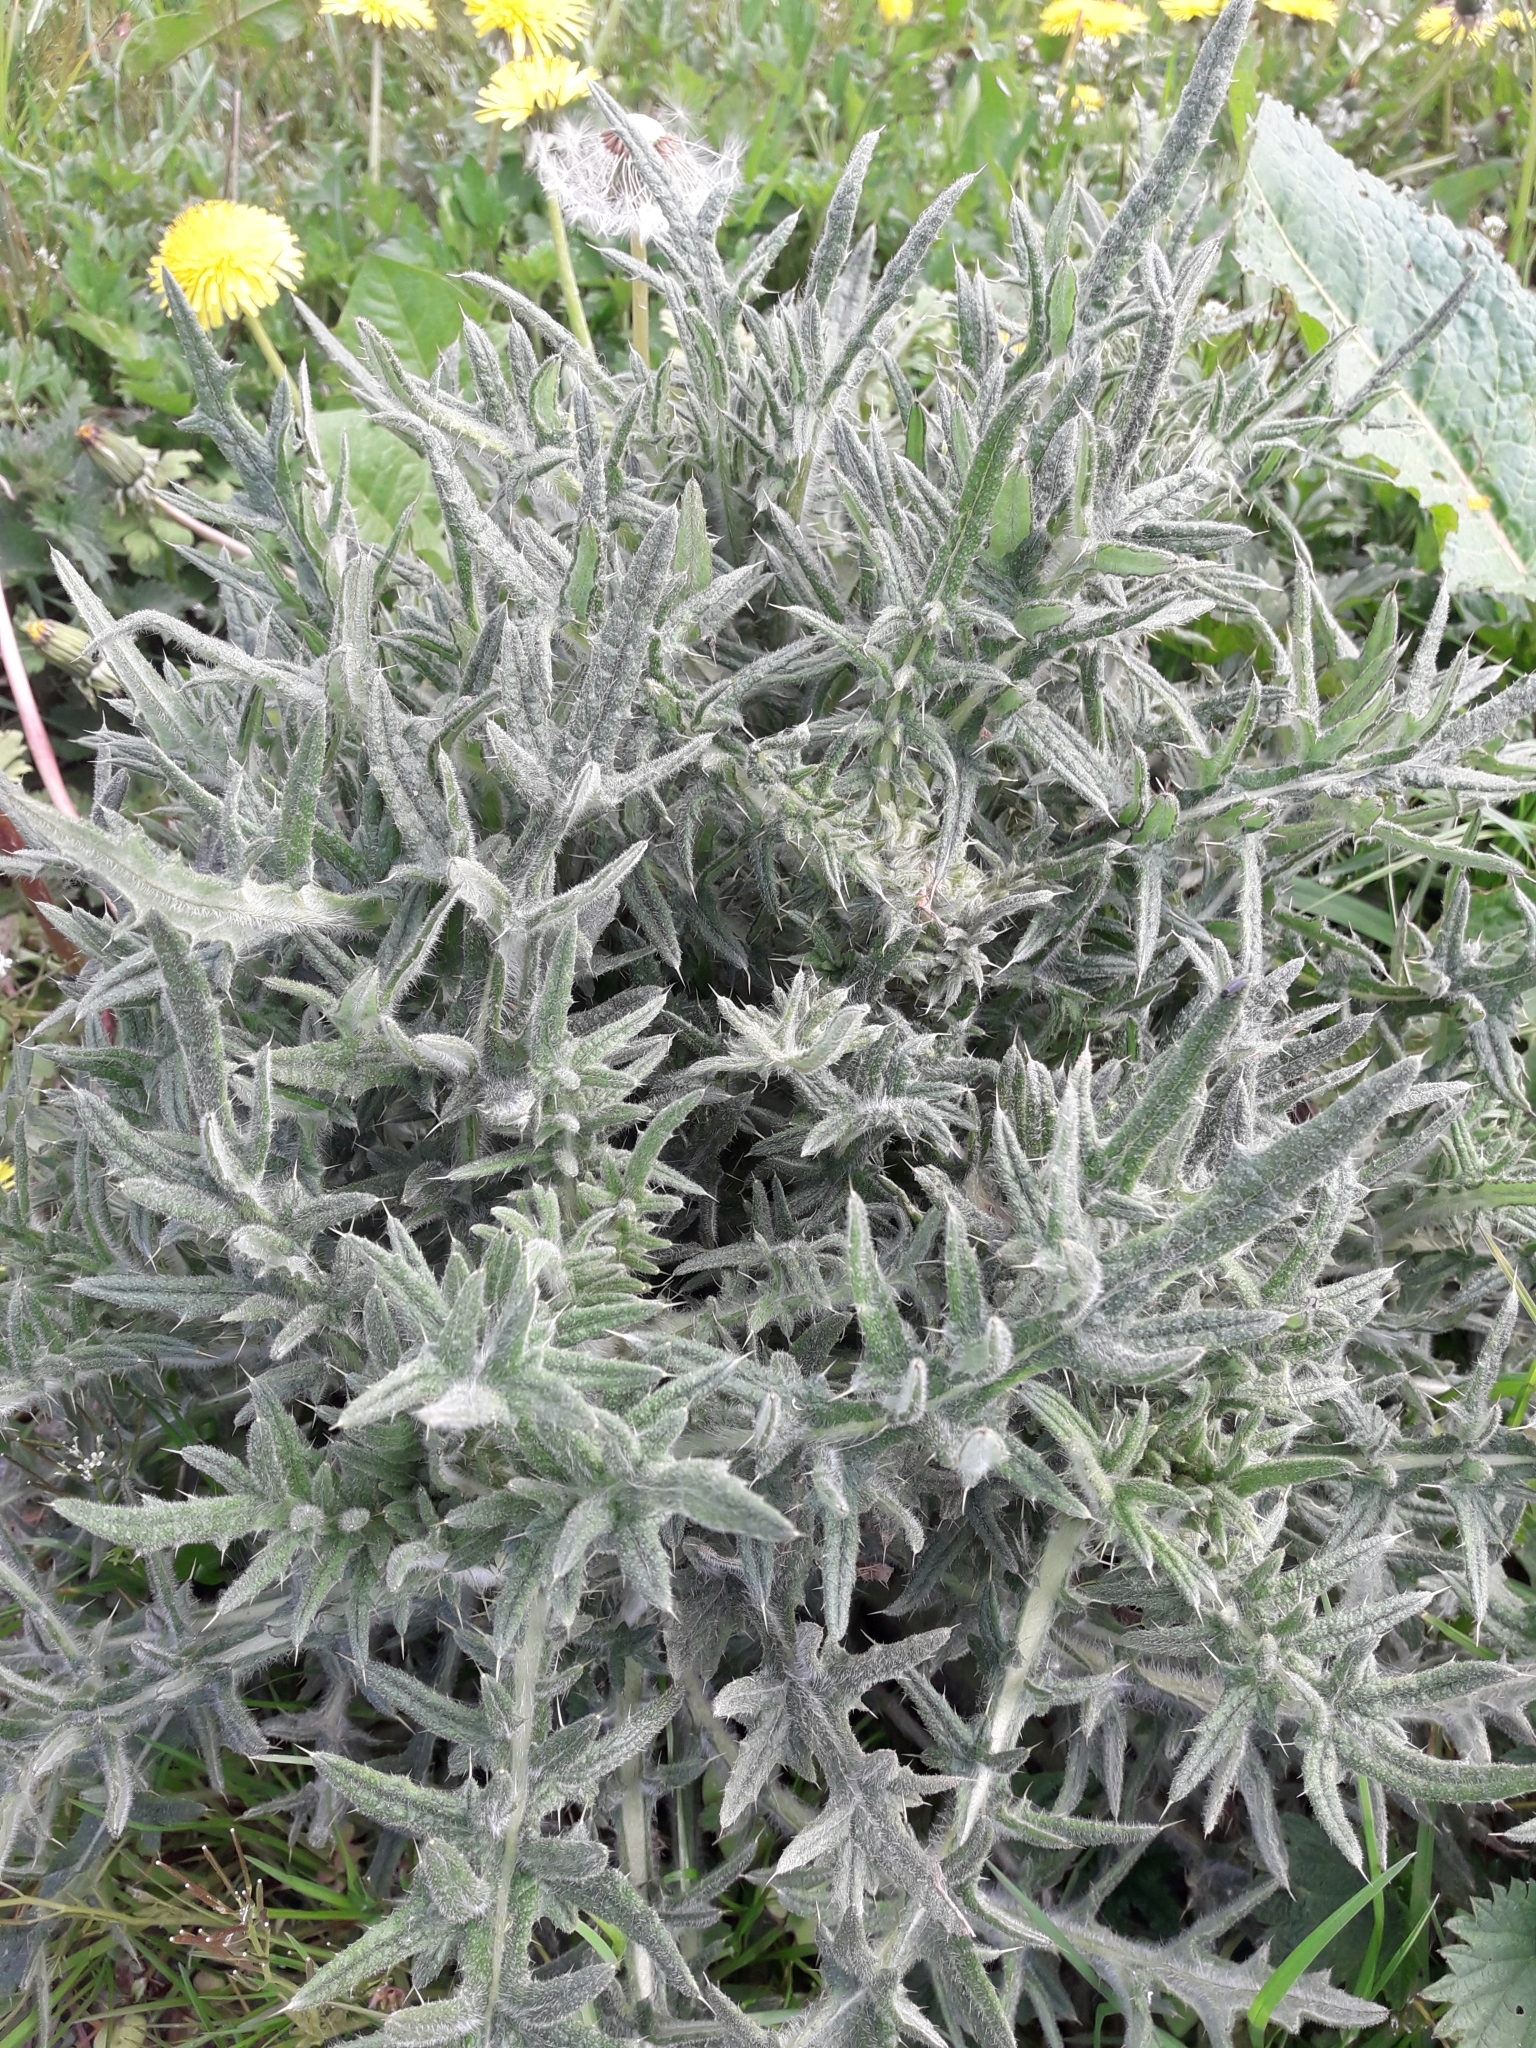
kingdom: Plantae
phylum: Tracheophyta
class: Magnoliopsida
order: Asterales
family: Asteraceae
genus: Cirsium
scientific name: Cirsium vulgare
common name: Bull thistle
